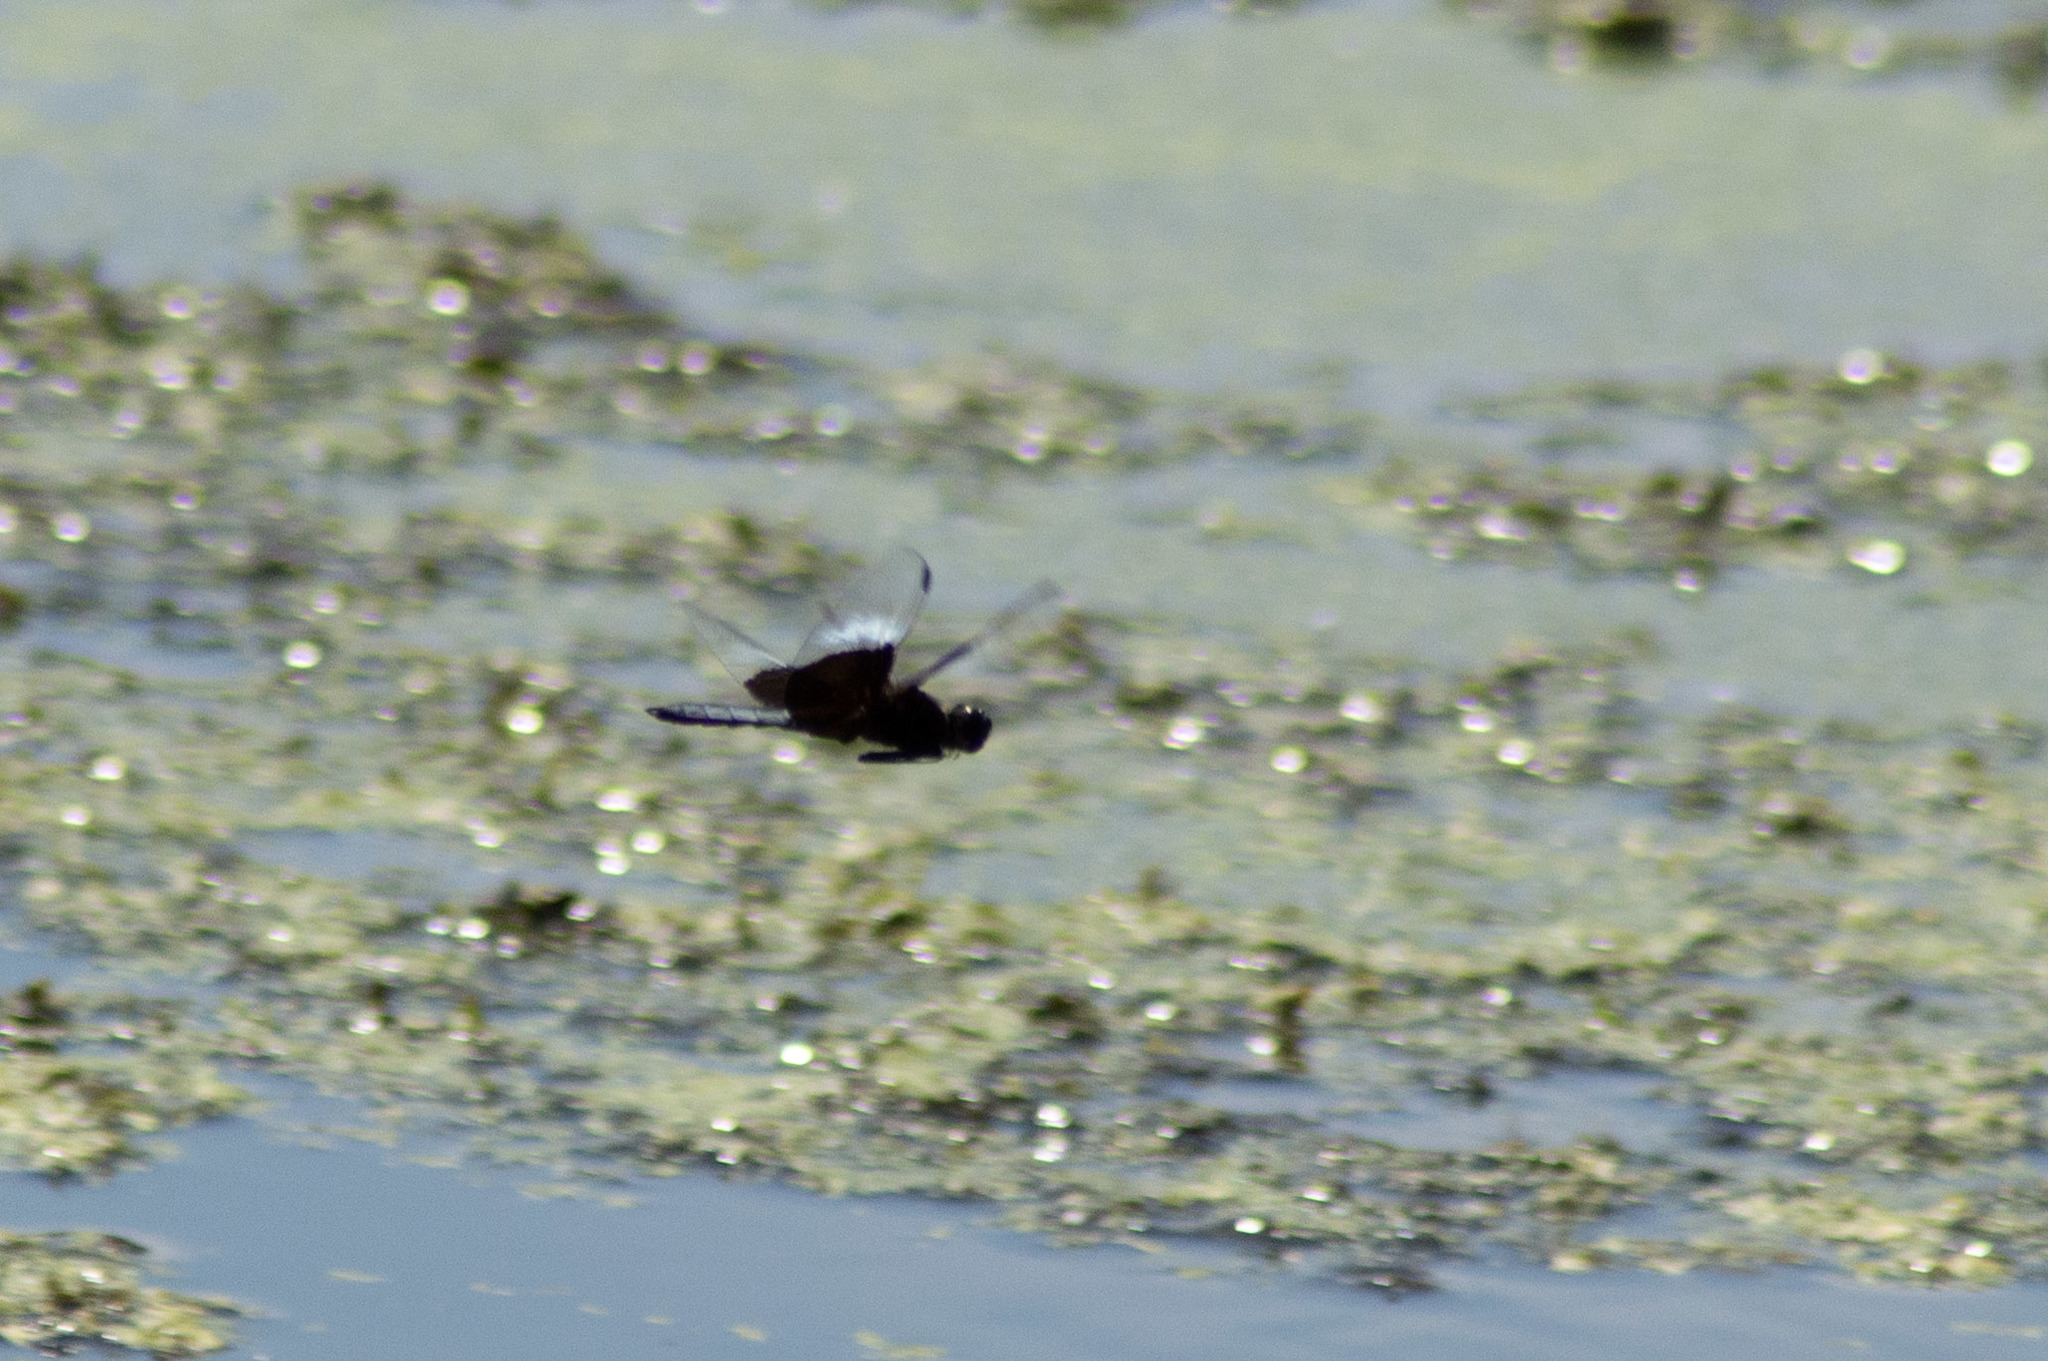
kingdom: Animalia
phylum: Arthropoda
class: Insecta
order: Odonata
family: Libellulidae
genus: Libellula
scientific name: Libellula luctuosa
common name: Widow skimmer
